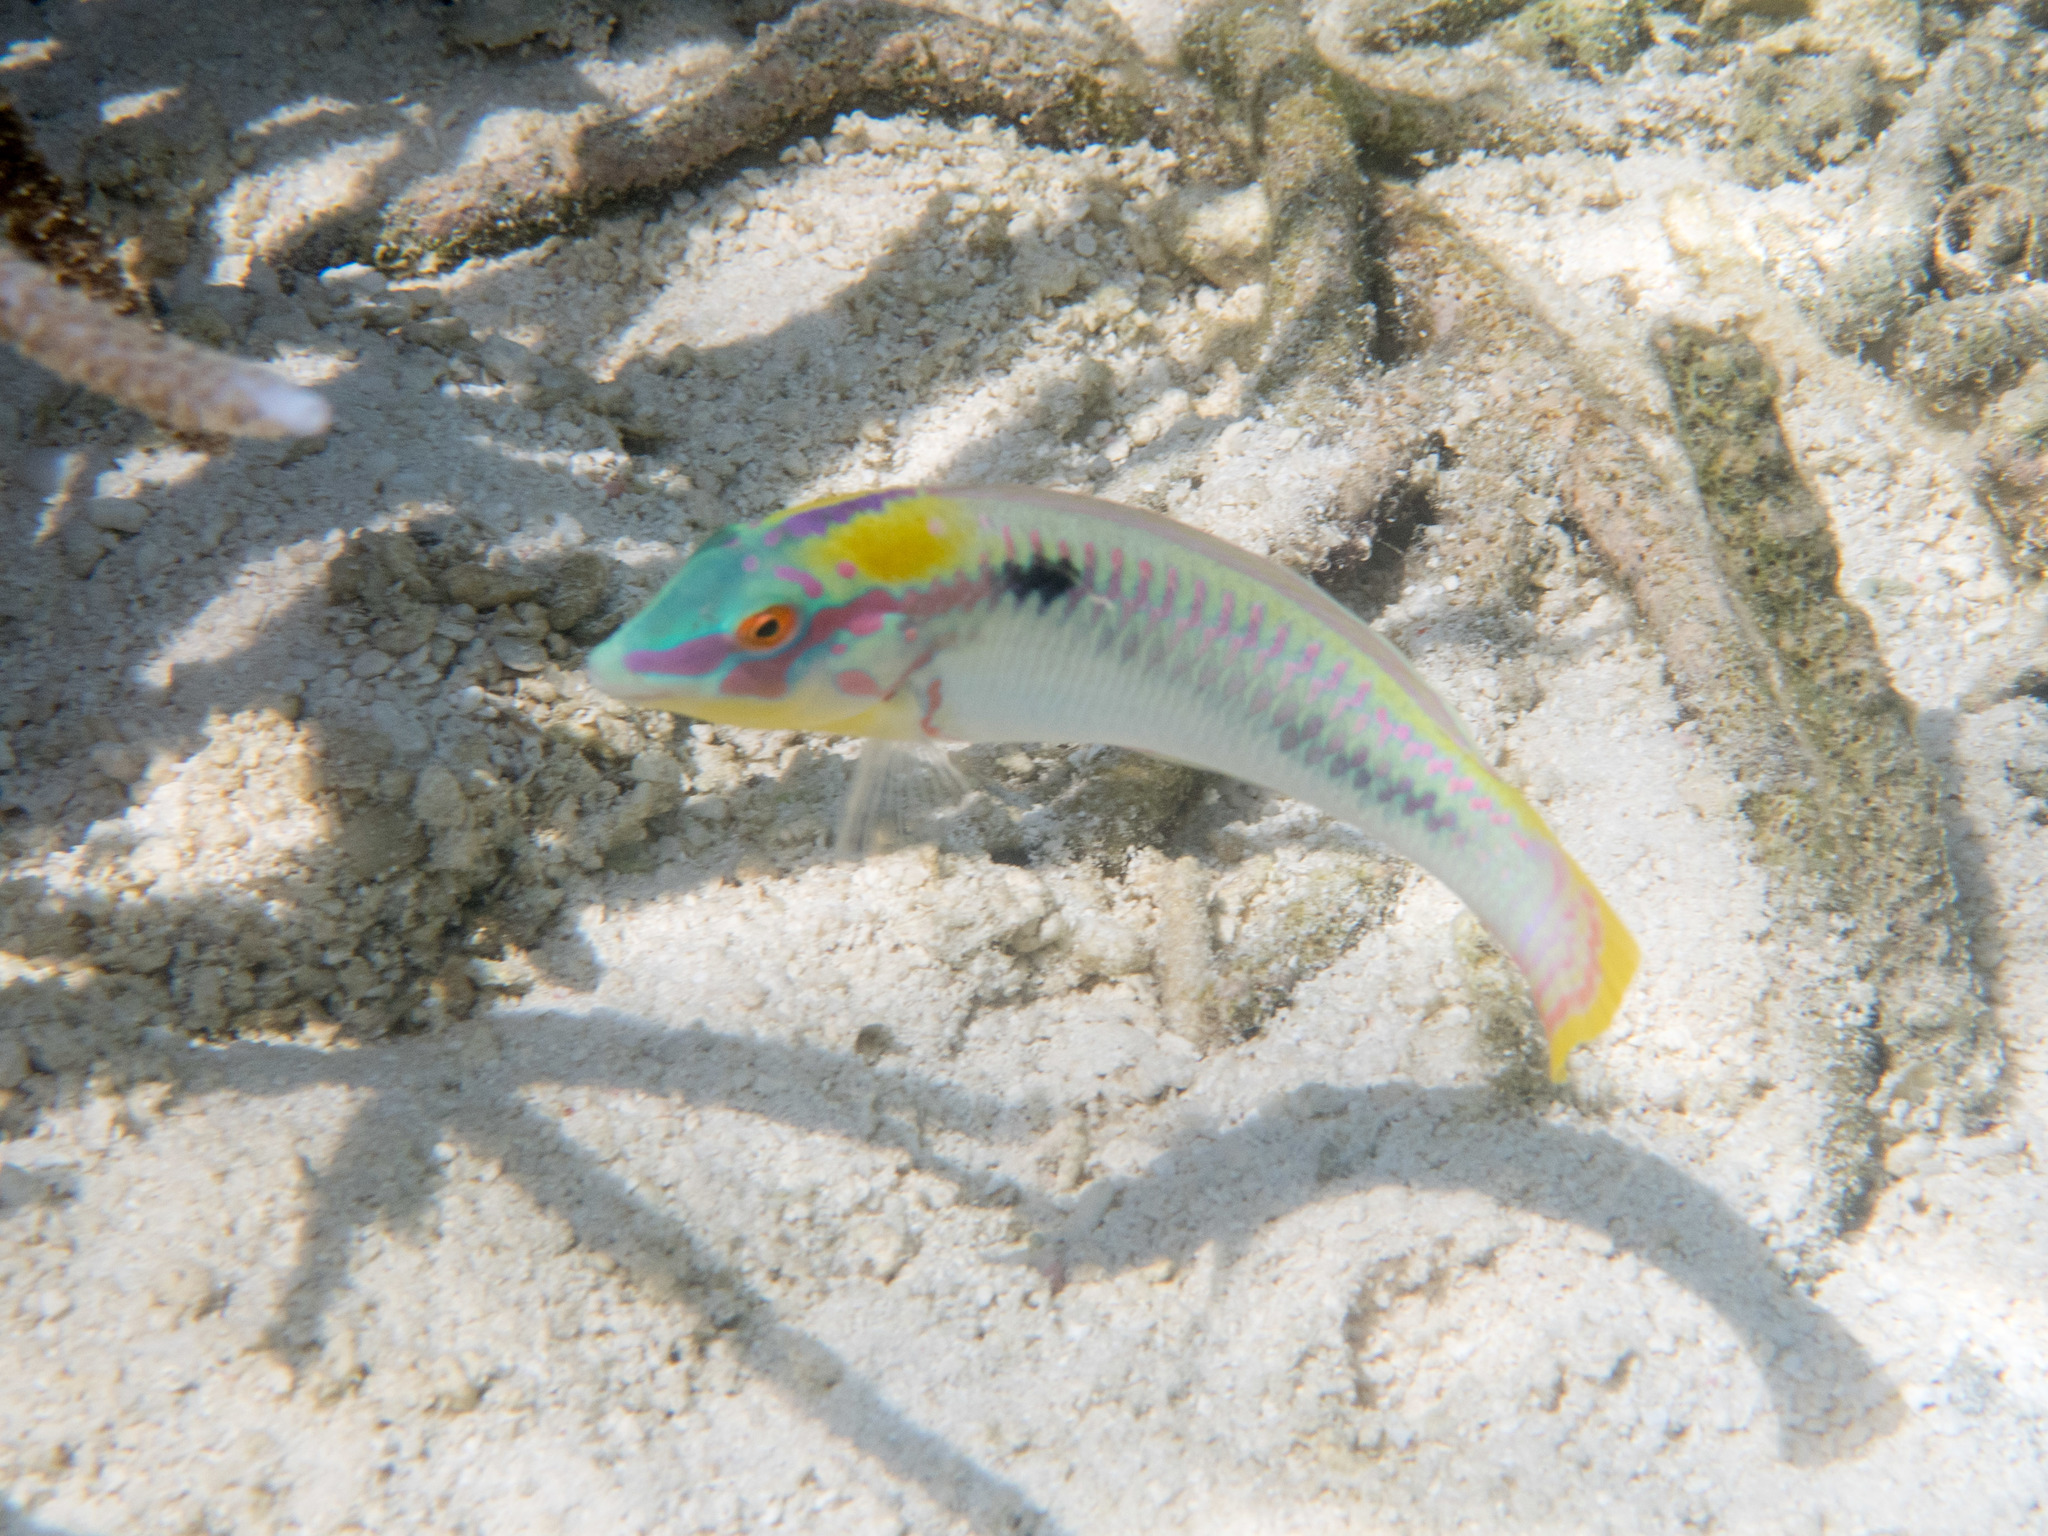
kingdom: Animalia
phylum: Chordata
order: Perciformes
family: Labridae
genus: Halichoeres
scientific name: Halichoeres scapularis
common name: Brownbanded wrasse
